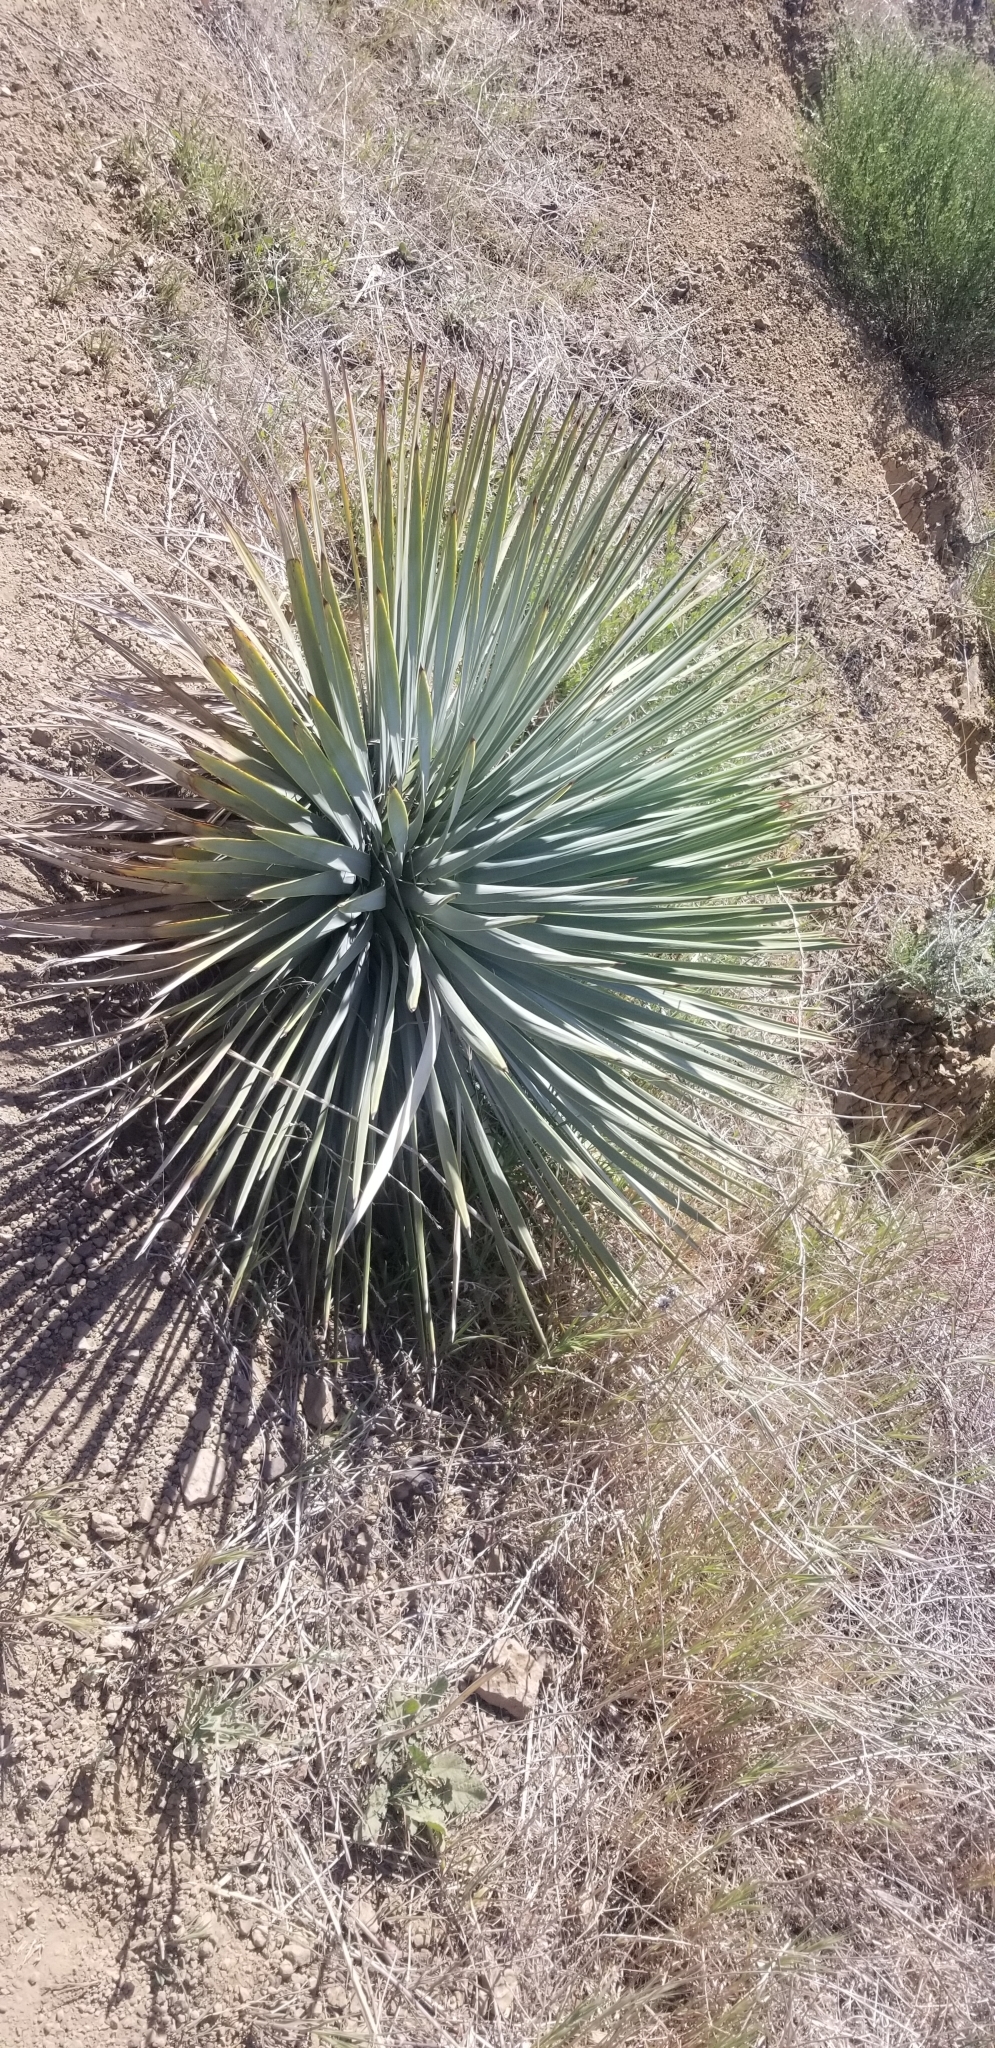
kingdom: Plantae
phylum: Tracheophyta
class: Liliopsida
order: Asparagales
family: Asparagaceae
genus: Hesperoyucca
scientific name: Hesperoyucca whipplei
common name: Our lord's-candle
